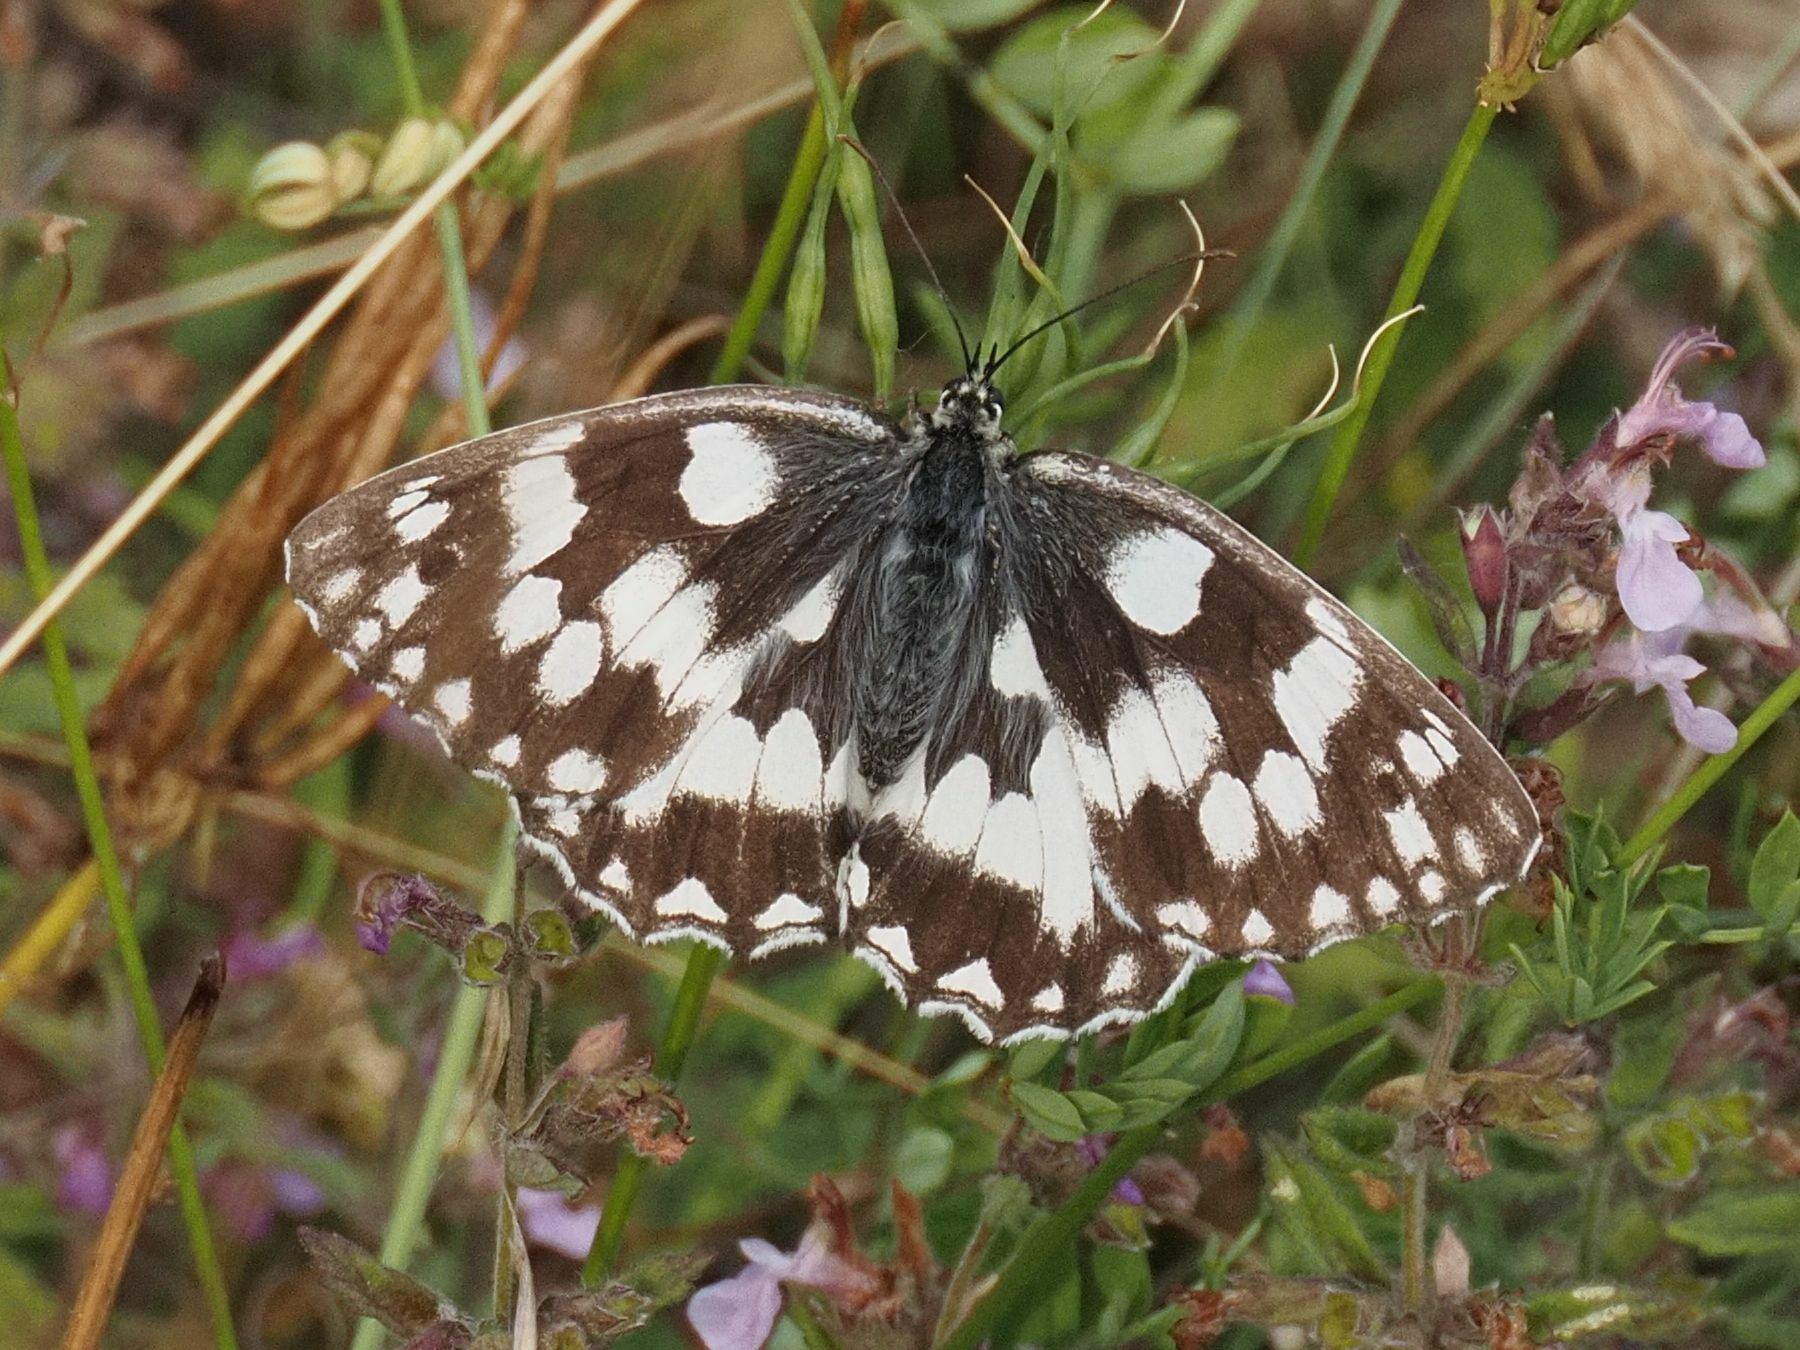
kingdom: Animalia
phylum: Arthropoda
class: Insecta
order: Lepidoptera
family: Nymphalidae
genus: Melanargia
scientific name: Melanargia galathea
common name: Marbled white
